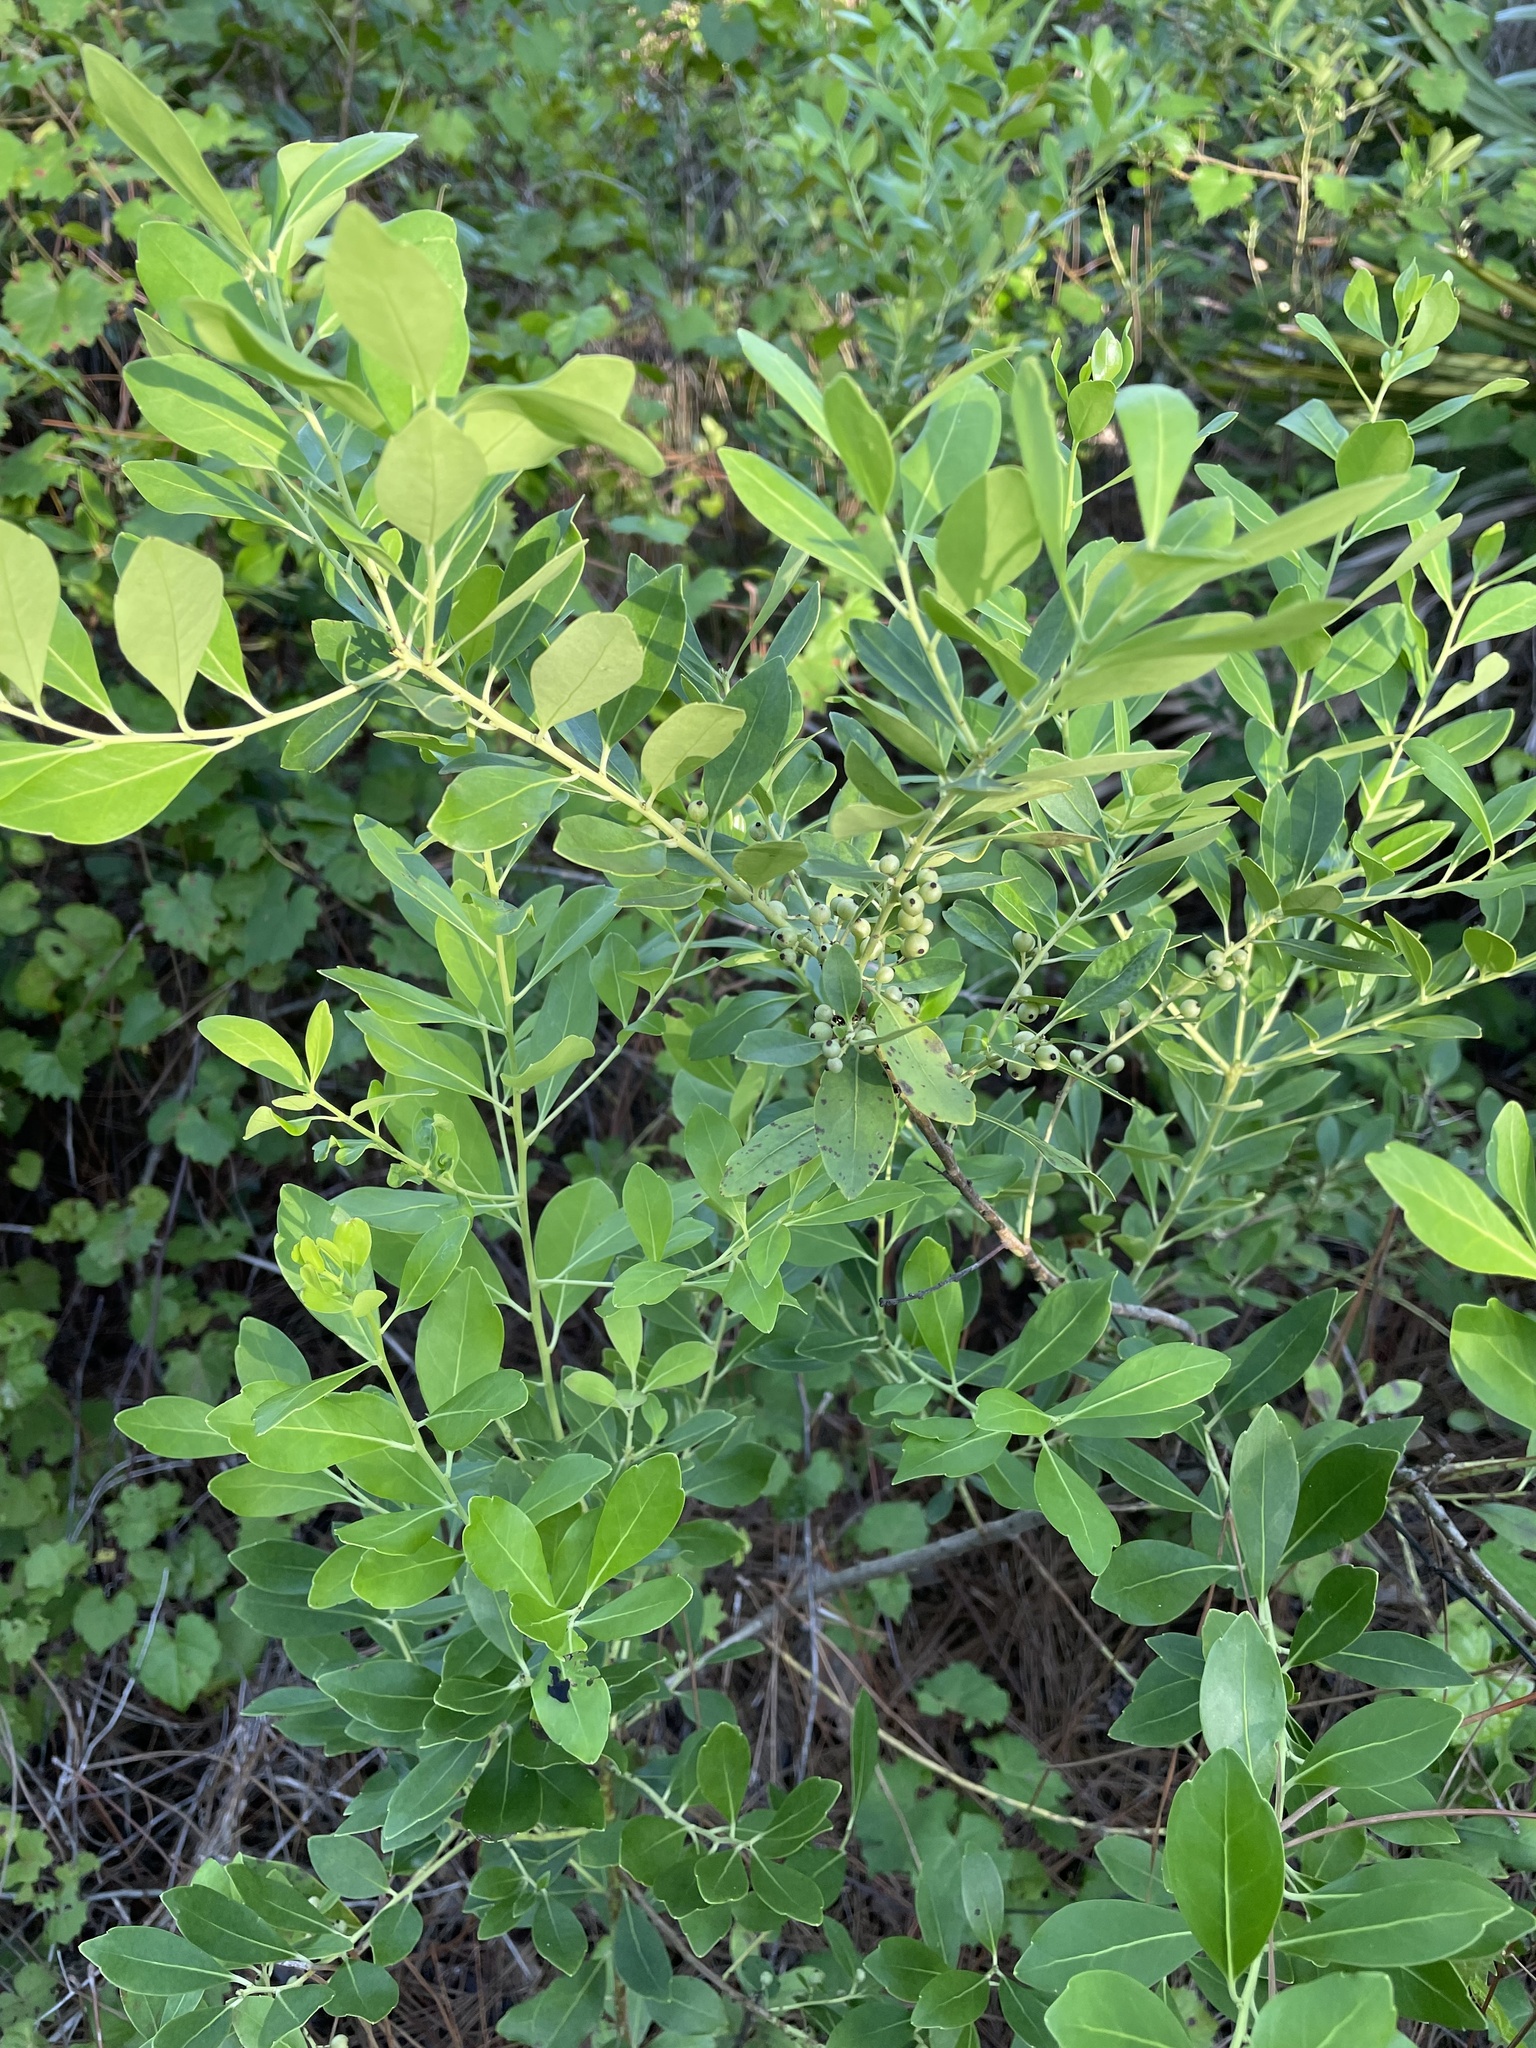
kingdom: Plantae
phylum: Tracheophyta
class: Magnoliopsida
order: Aquifoliales
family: Aquifoliaceae
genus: Ilex
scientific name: Ilex glabra
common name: Bitter gallberry
